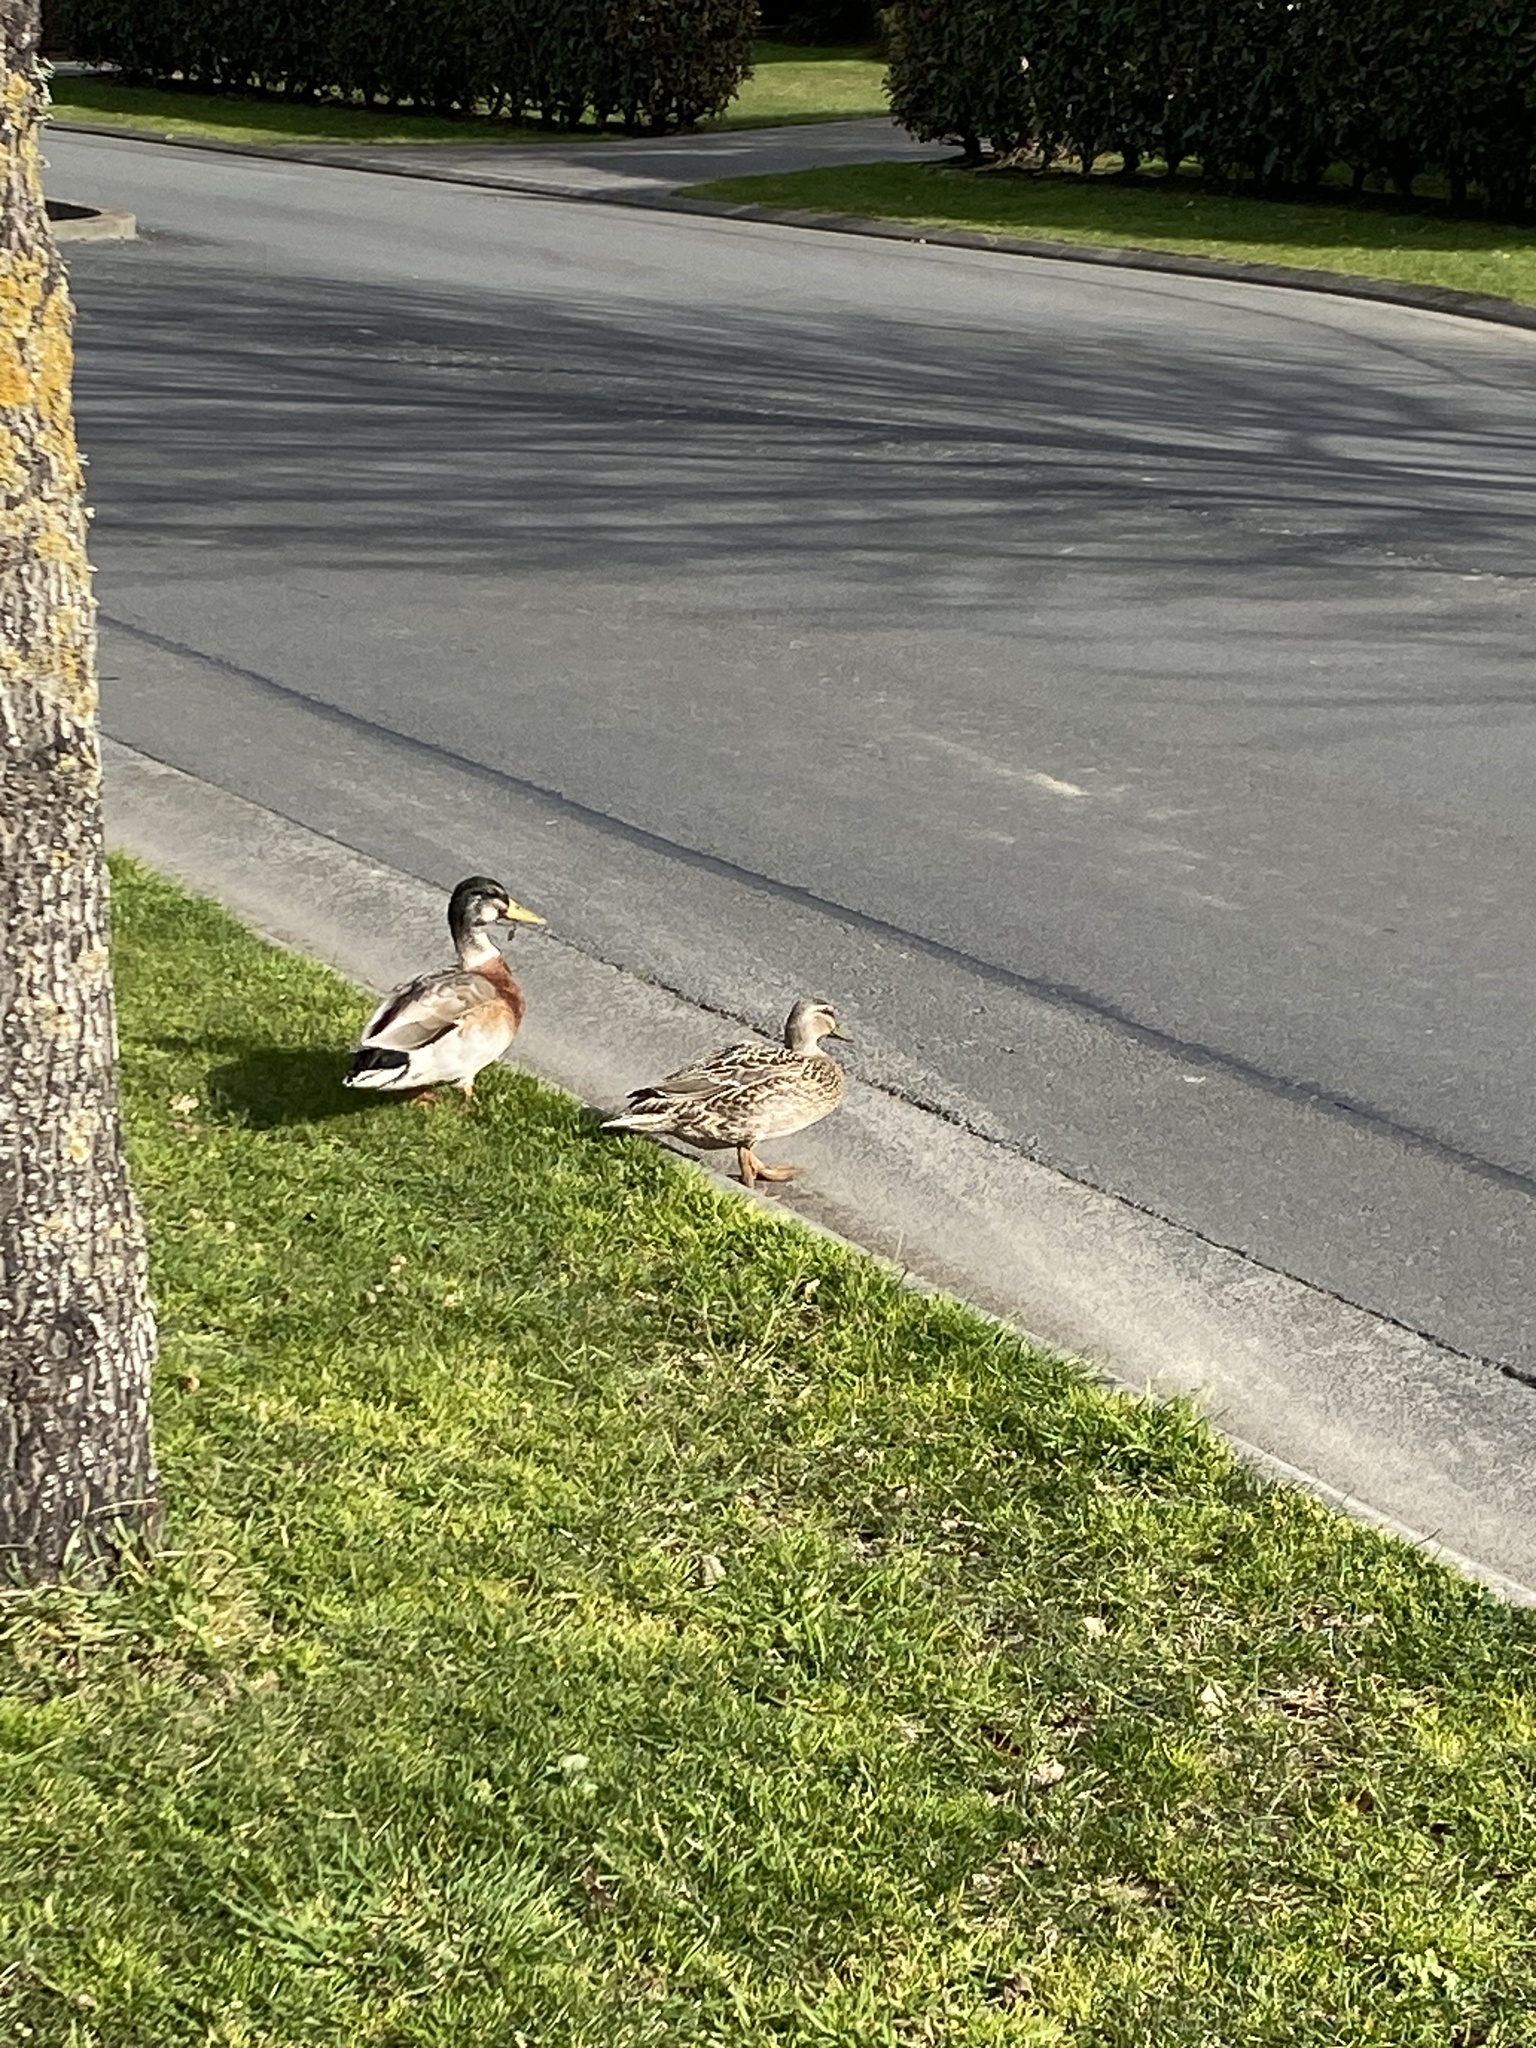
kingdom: Animalia
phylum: Chordata
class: Aves
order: Anseriformes
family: Anatidae
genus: Anas
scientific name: Anas
